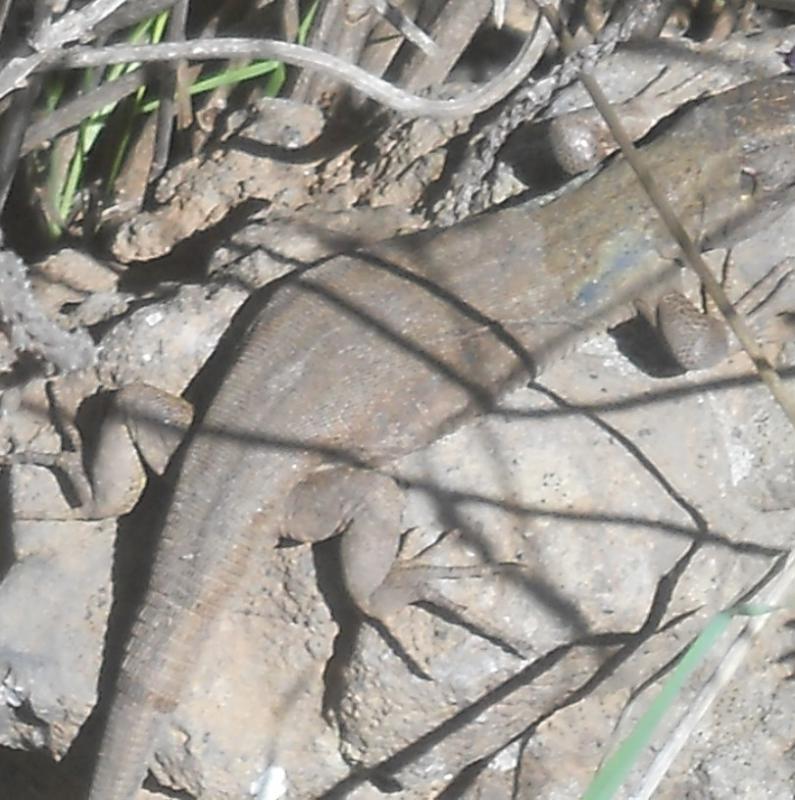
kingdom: Animalia
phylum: Chordata
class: Squamata
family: Lacertidae
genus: Gallotia
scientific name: Gallotia galloti
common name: Gallot's lizard
